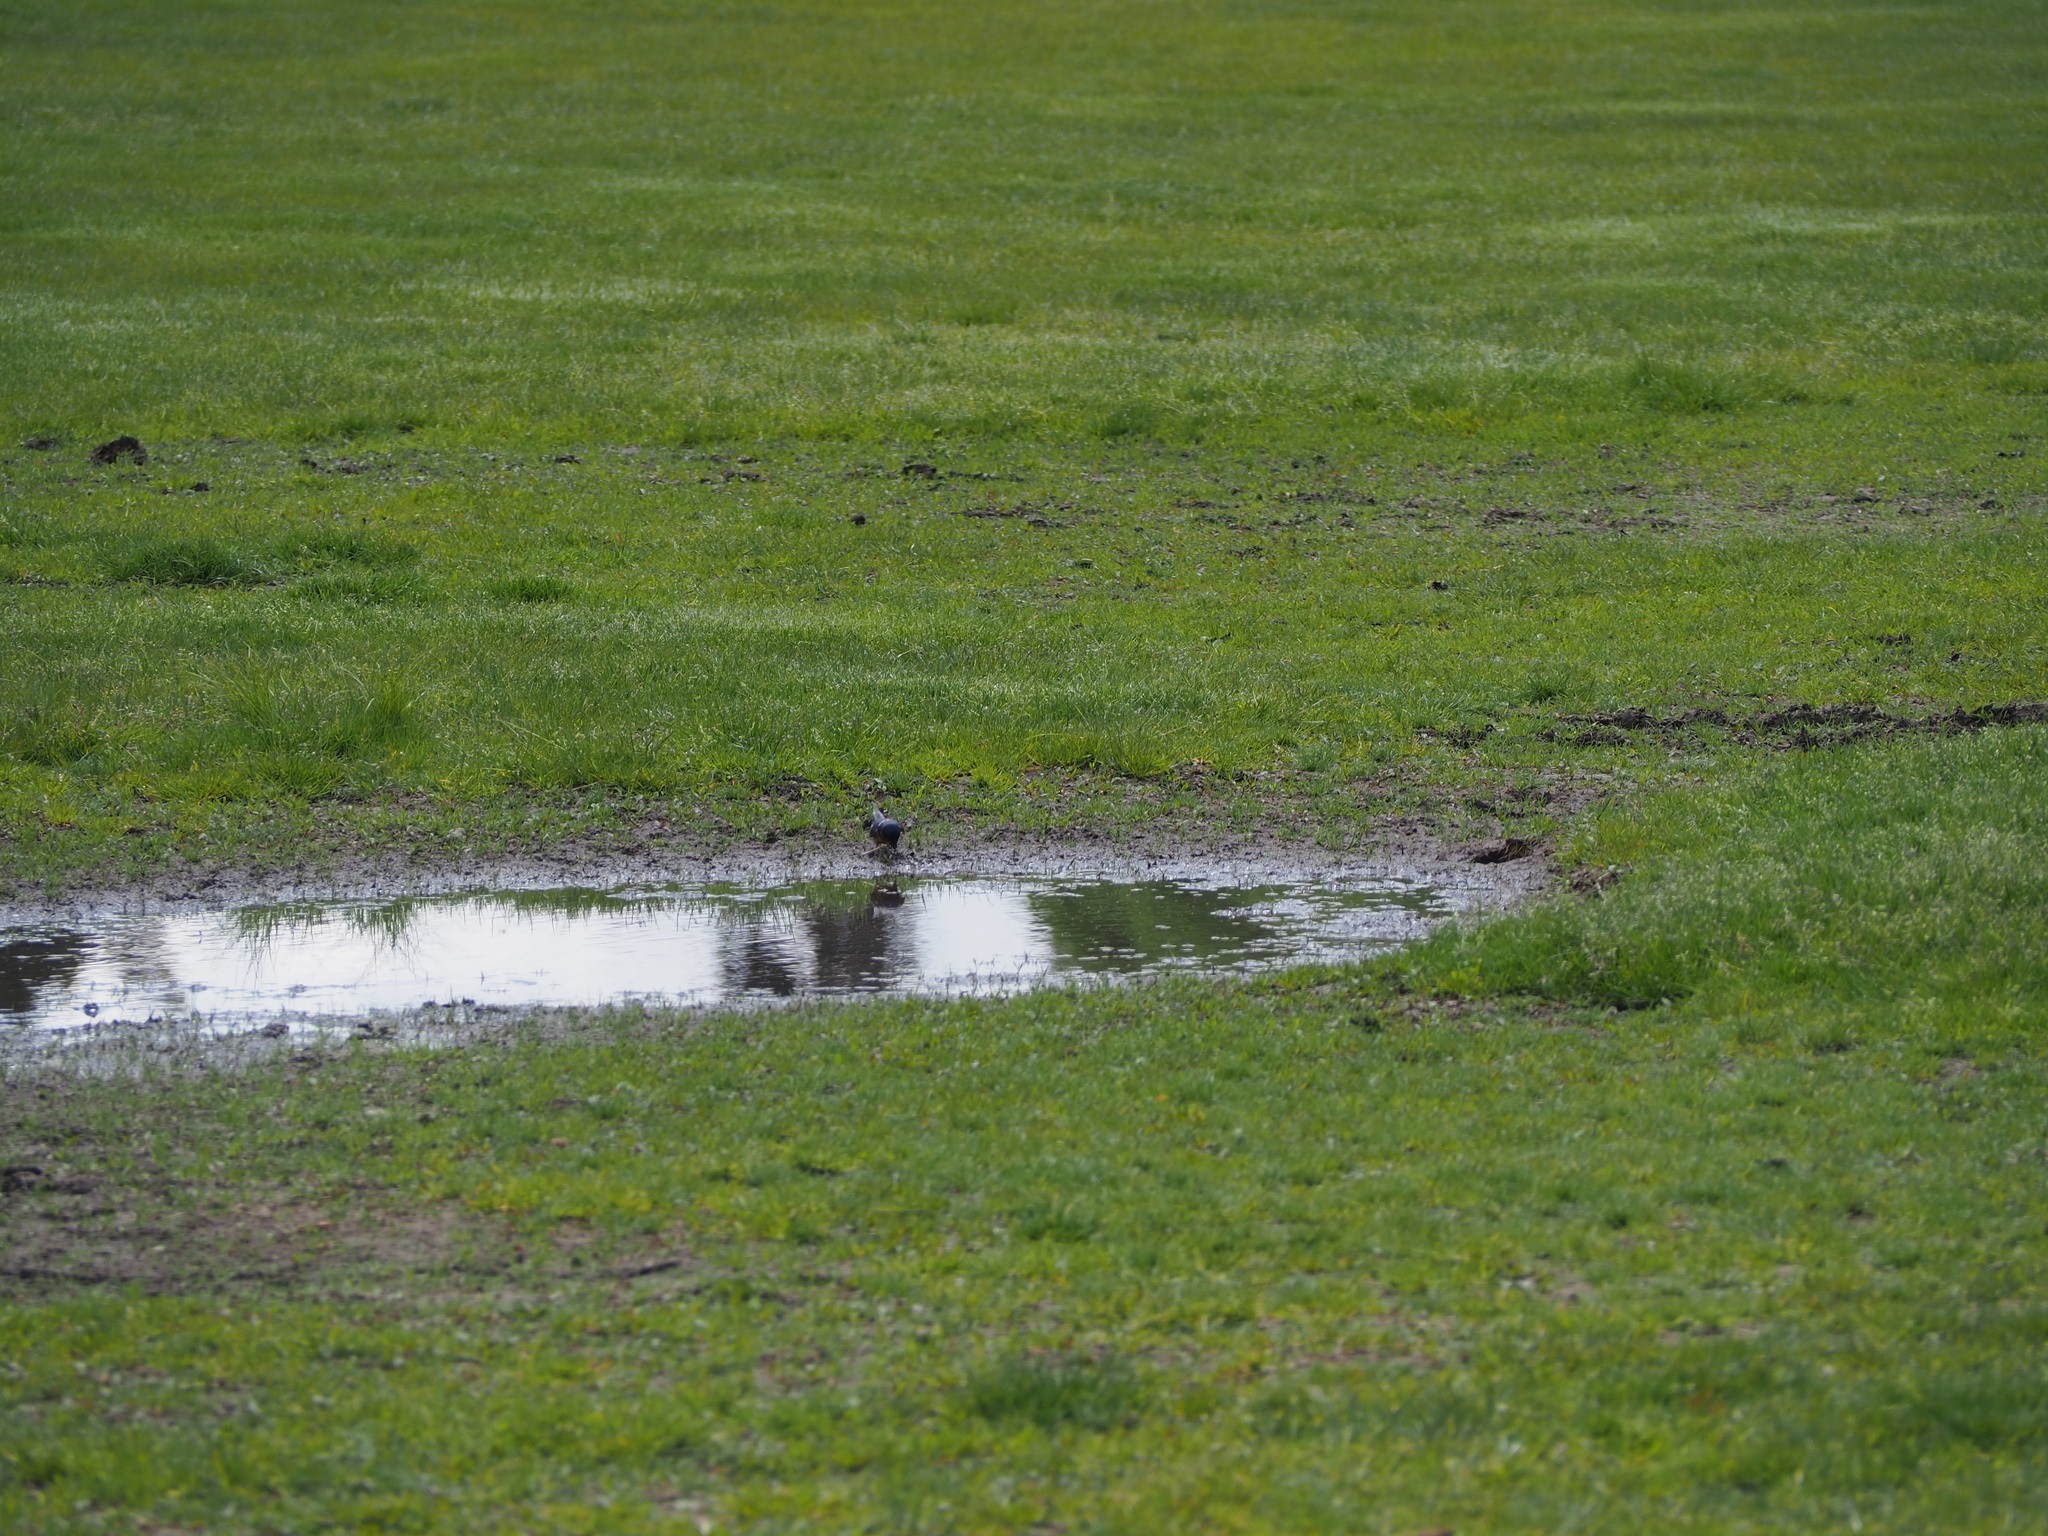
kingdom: Animalia
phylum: Chordata
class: Aves
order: Passeriformes
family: Hirundinidae
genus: Hirundo
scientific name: Hirundo rustica
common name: Barn swallow
